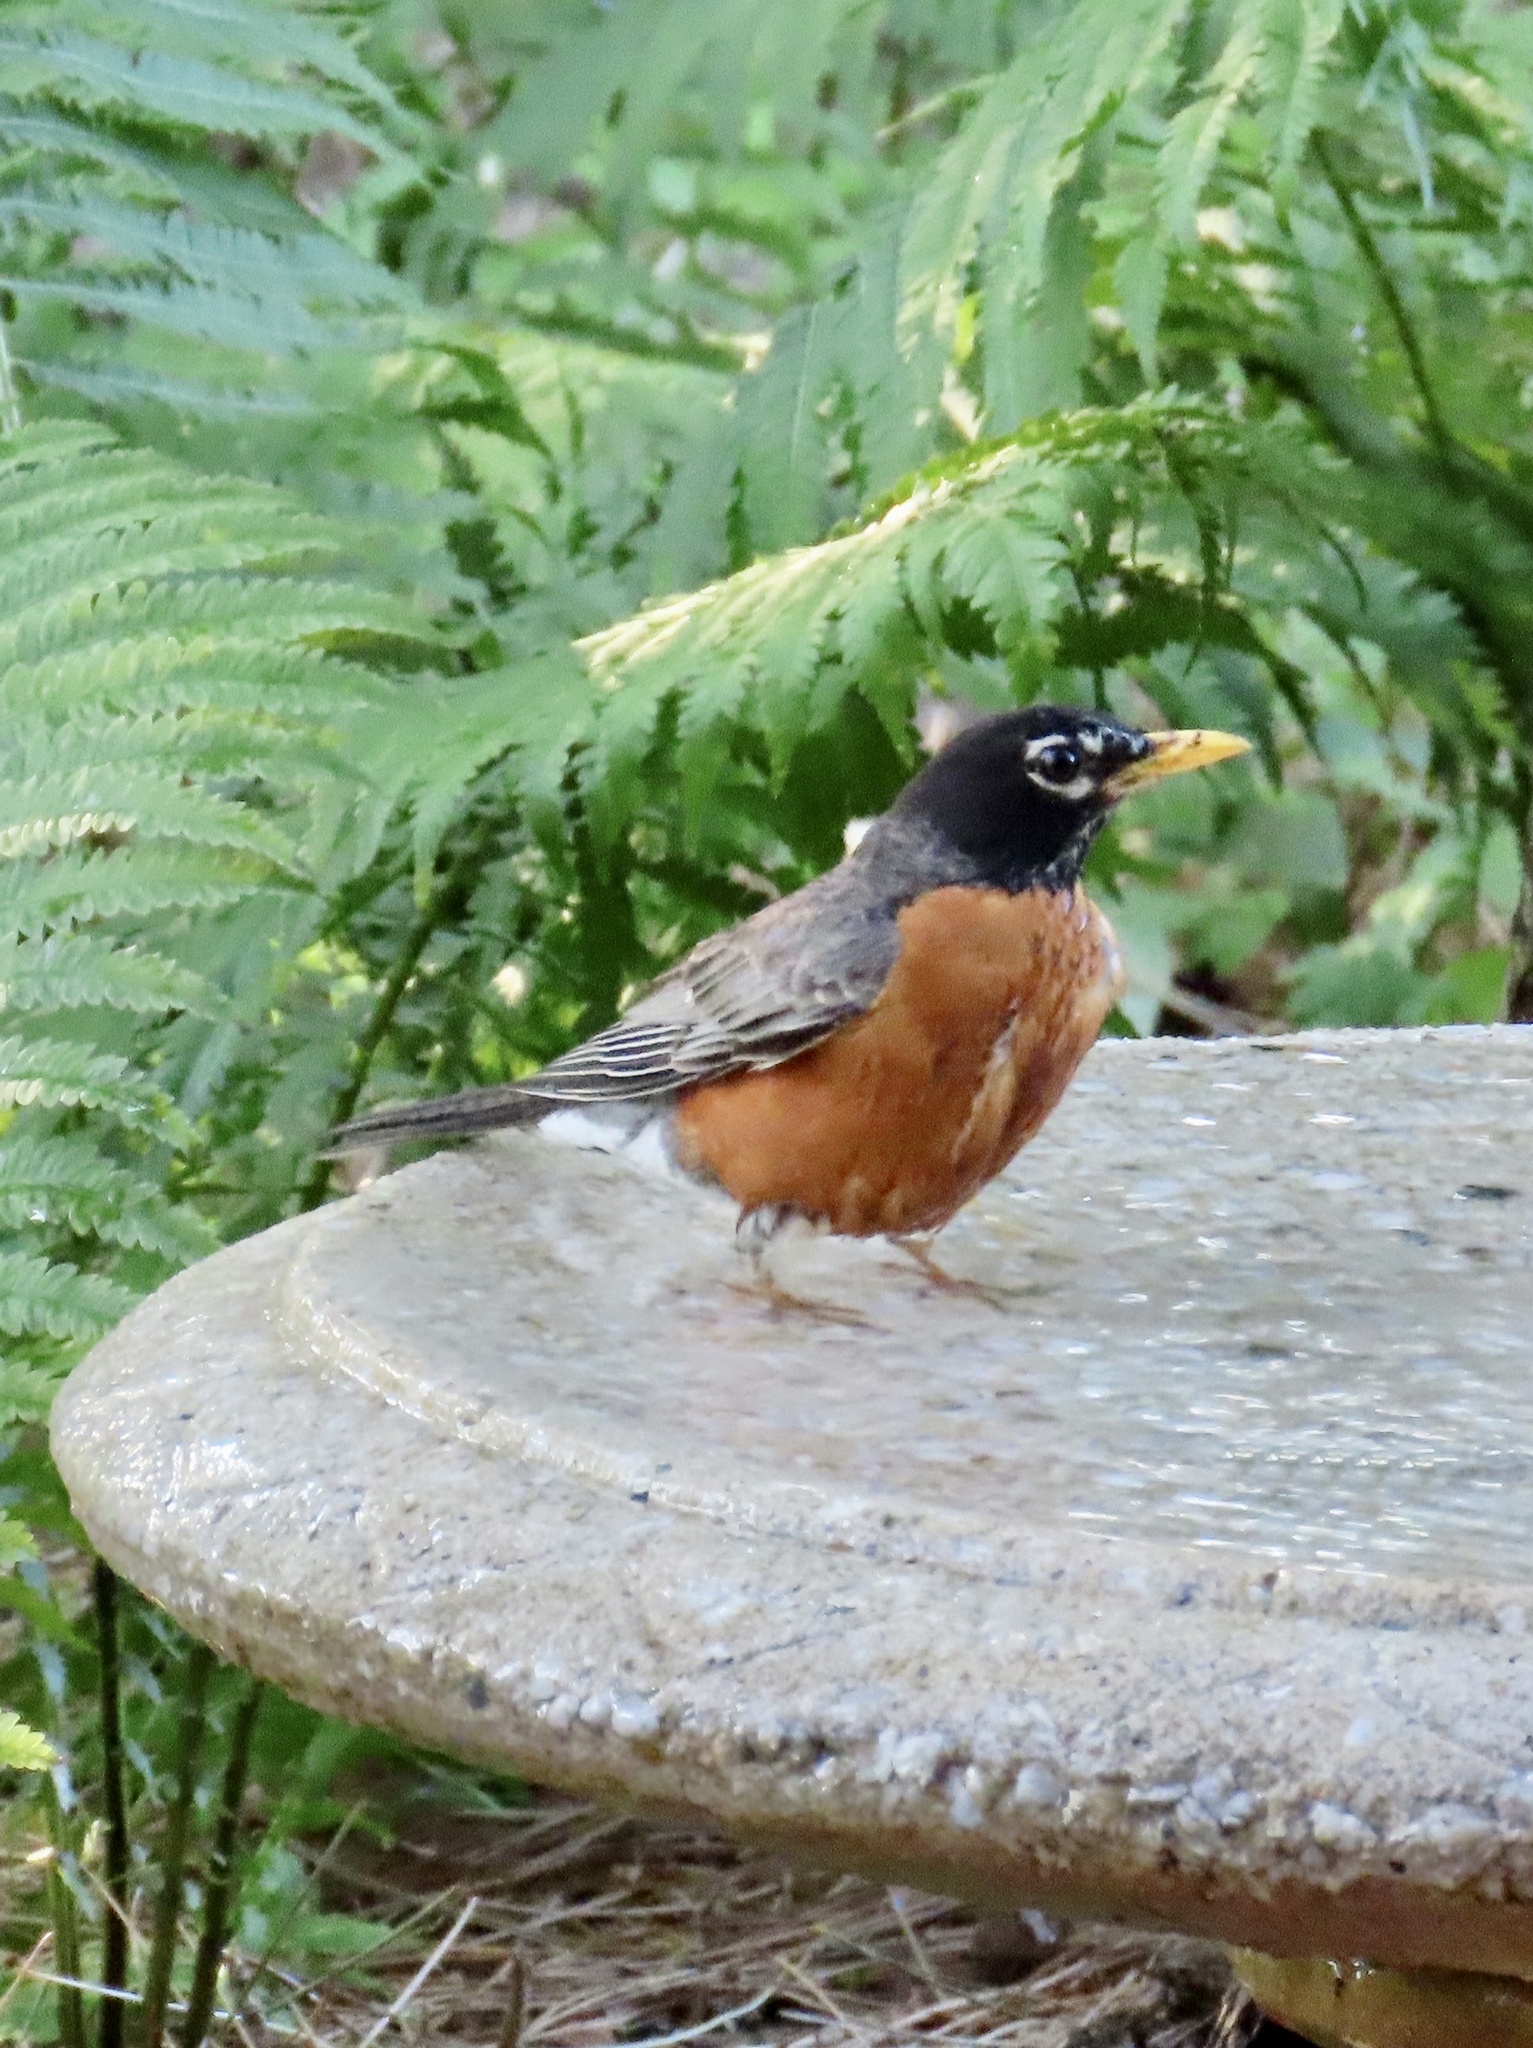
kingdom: Animalia
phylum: Chordata
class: Aves
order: Passeriformes
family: Turdidae
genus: Turdus
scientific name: Turdus migratorius
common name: American robin
